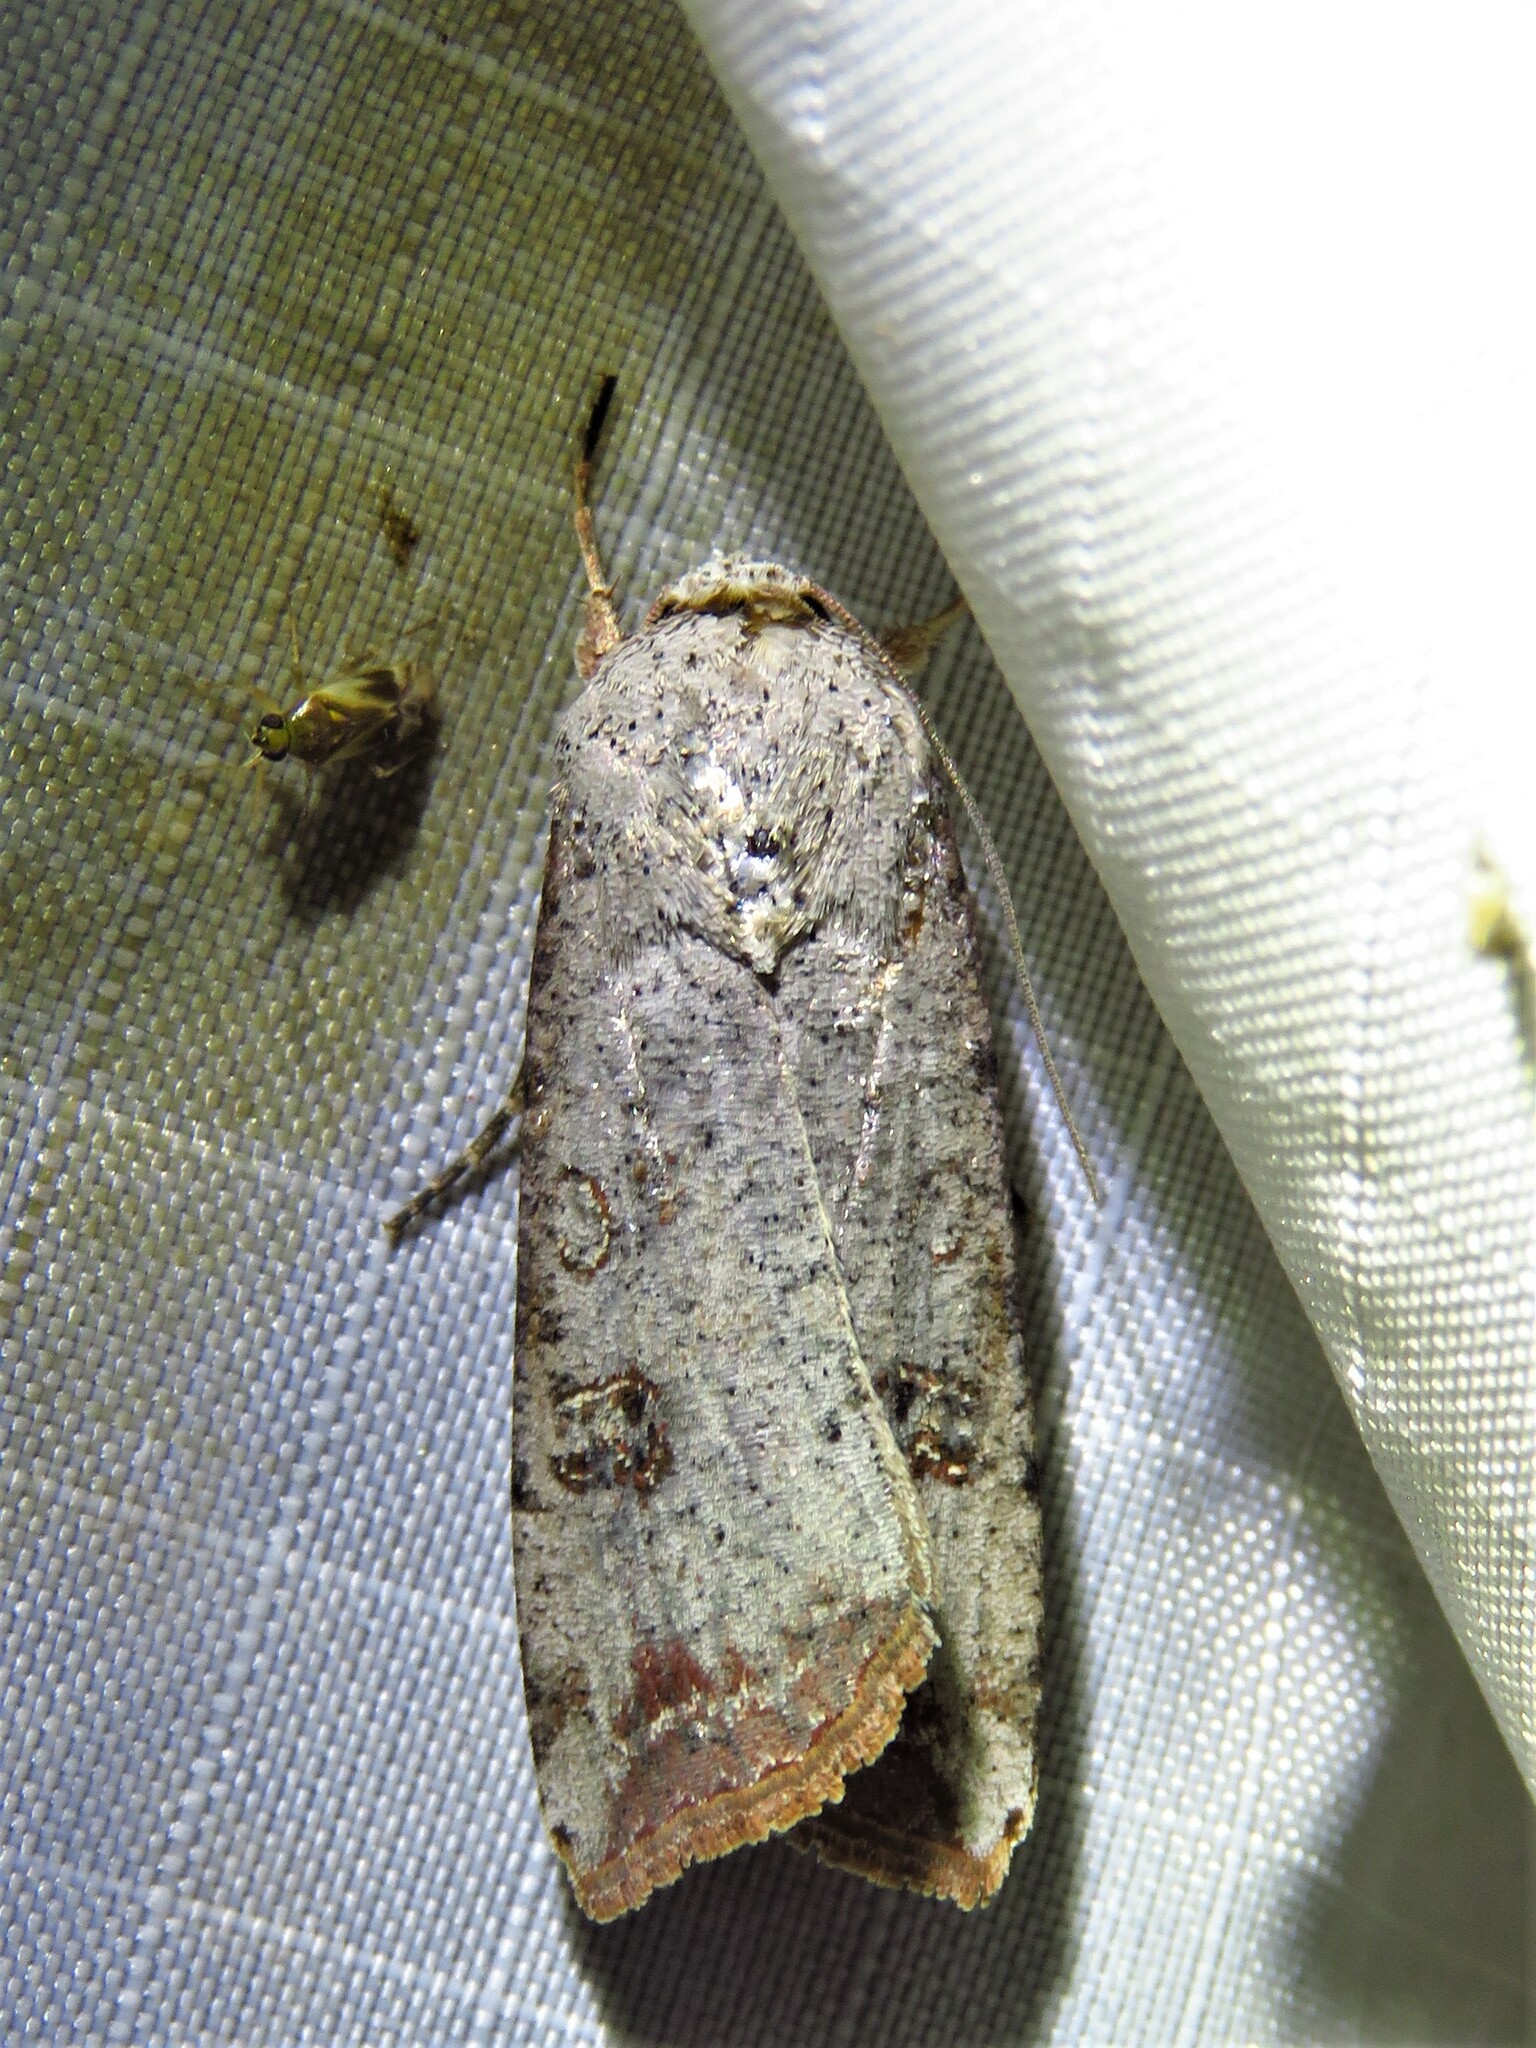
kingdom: Animalia
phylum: Arthropoda
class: Insecta
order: Lepidoptera
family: Noctuidae
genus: Anicla
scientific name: Anicla infecta
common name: Green cutworm
